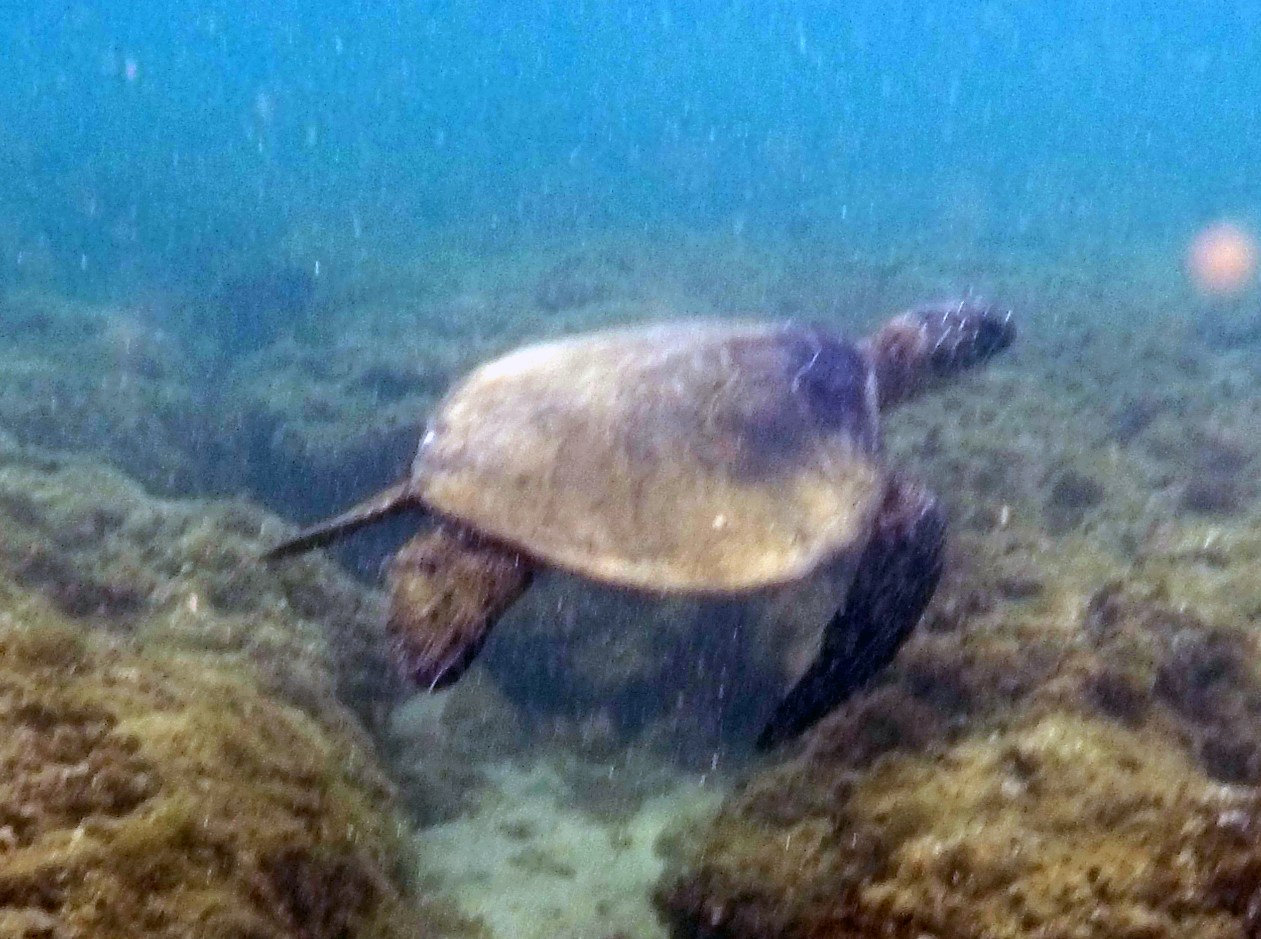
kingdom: Animalia
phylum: Chordata
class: Testudines
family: Cheloniidae
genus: Chelonia
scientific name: Chelonia mydas
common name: Green turtle
